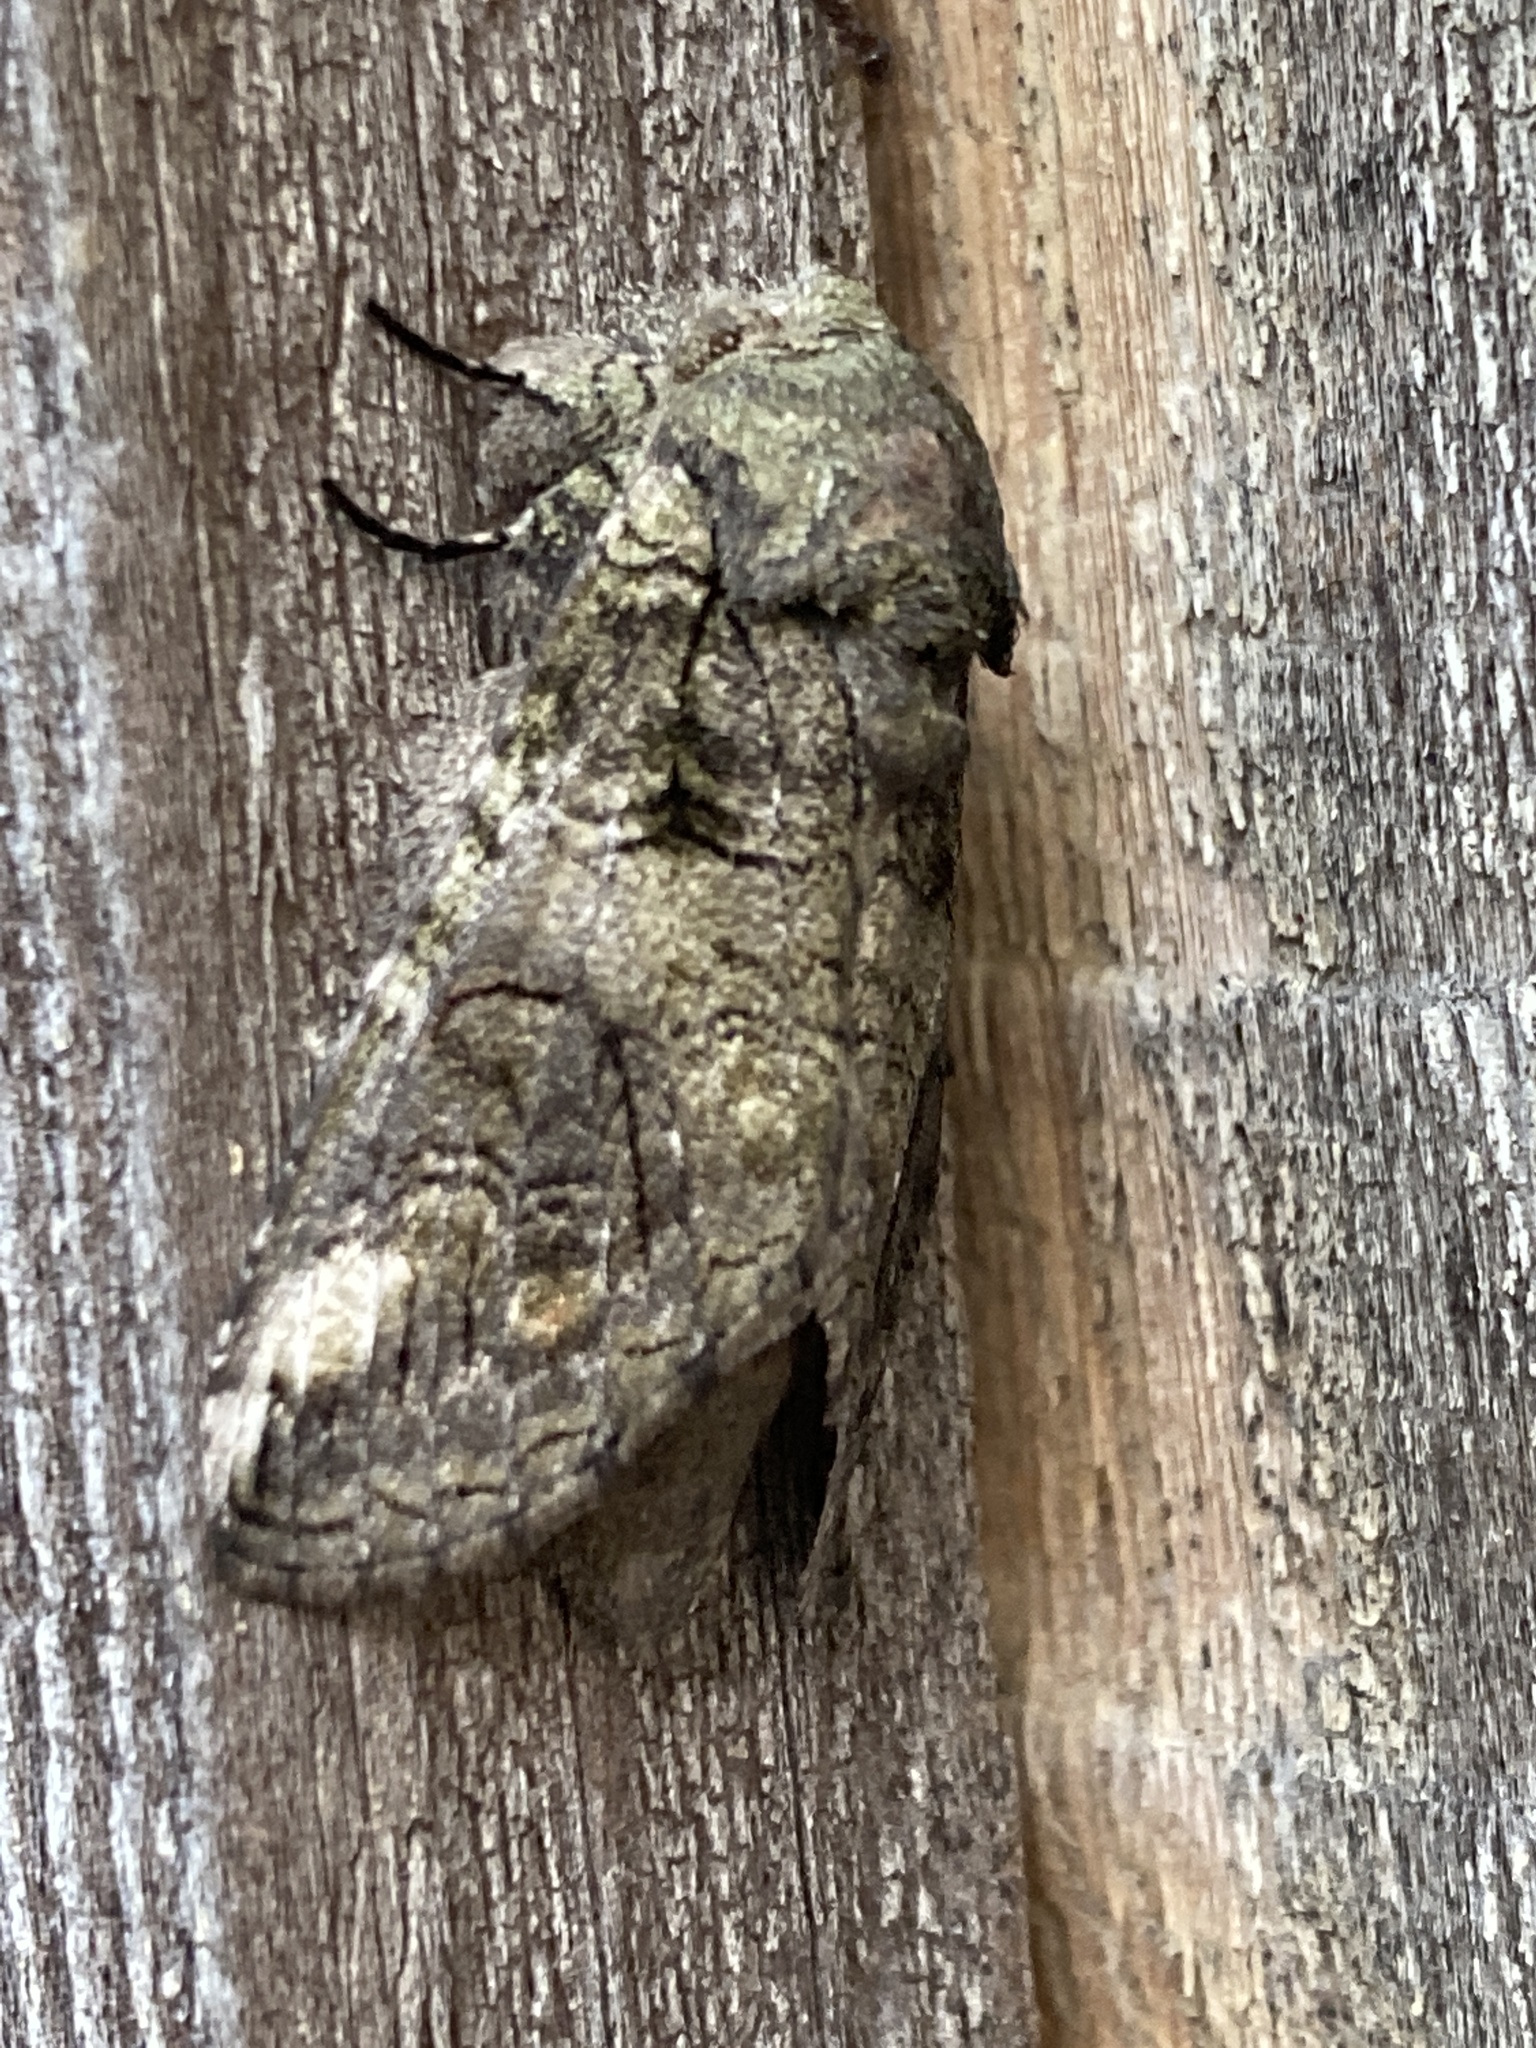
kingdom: Animalia
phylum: Arthropoda
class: Insecta
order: Lepidoptera
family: Notodontidae
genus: Heterocampa
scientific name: Heterocampa obliqua
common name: Oblique heterocampa
